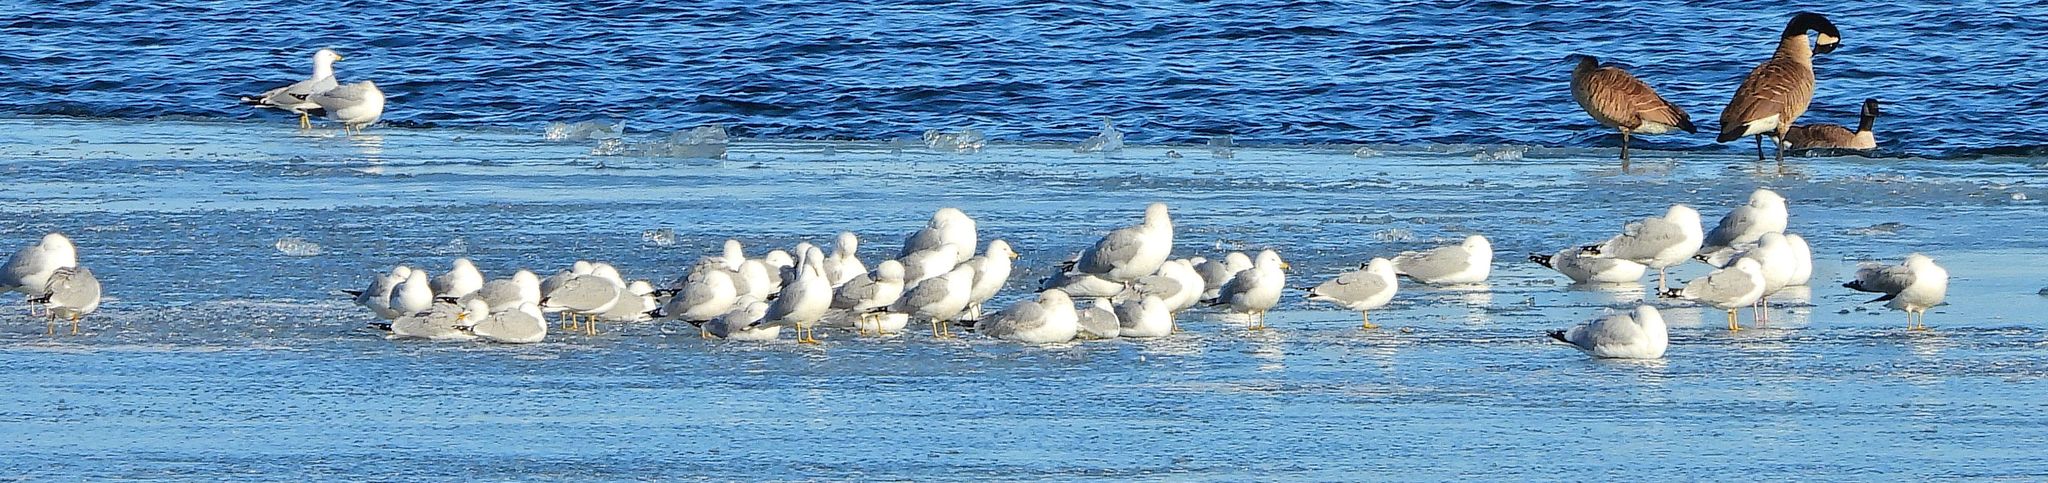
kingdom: Animalia
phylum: Chordata
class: Aves
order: Charadriiformes
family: Laridae
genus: Larus
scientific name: Larus delawarensis
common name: Ring-billed gull
